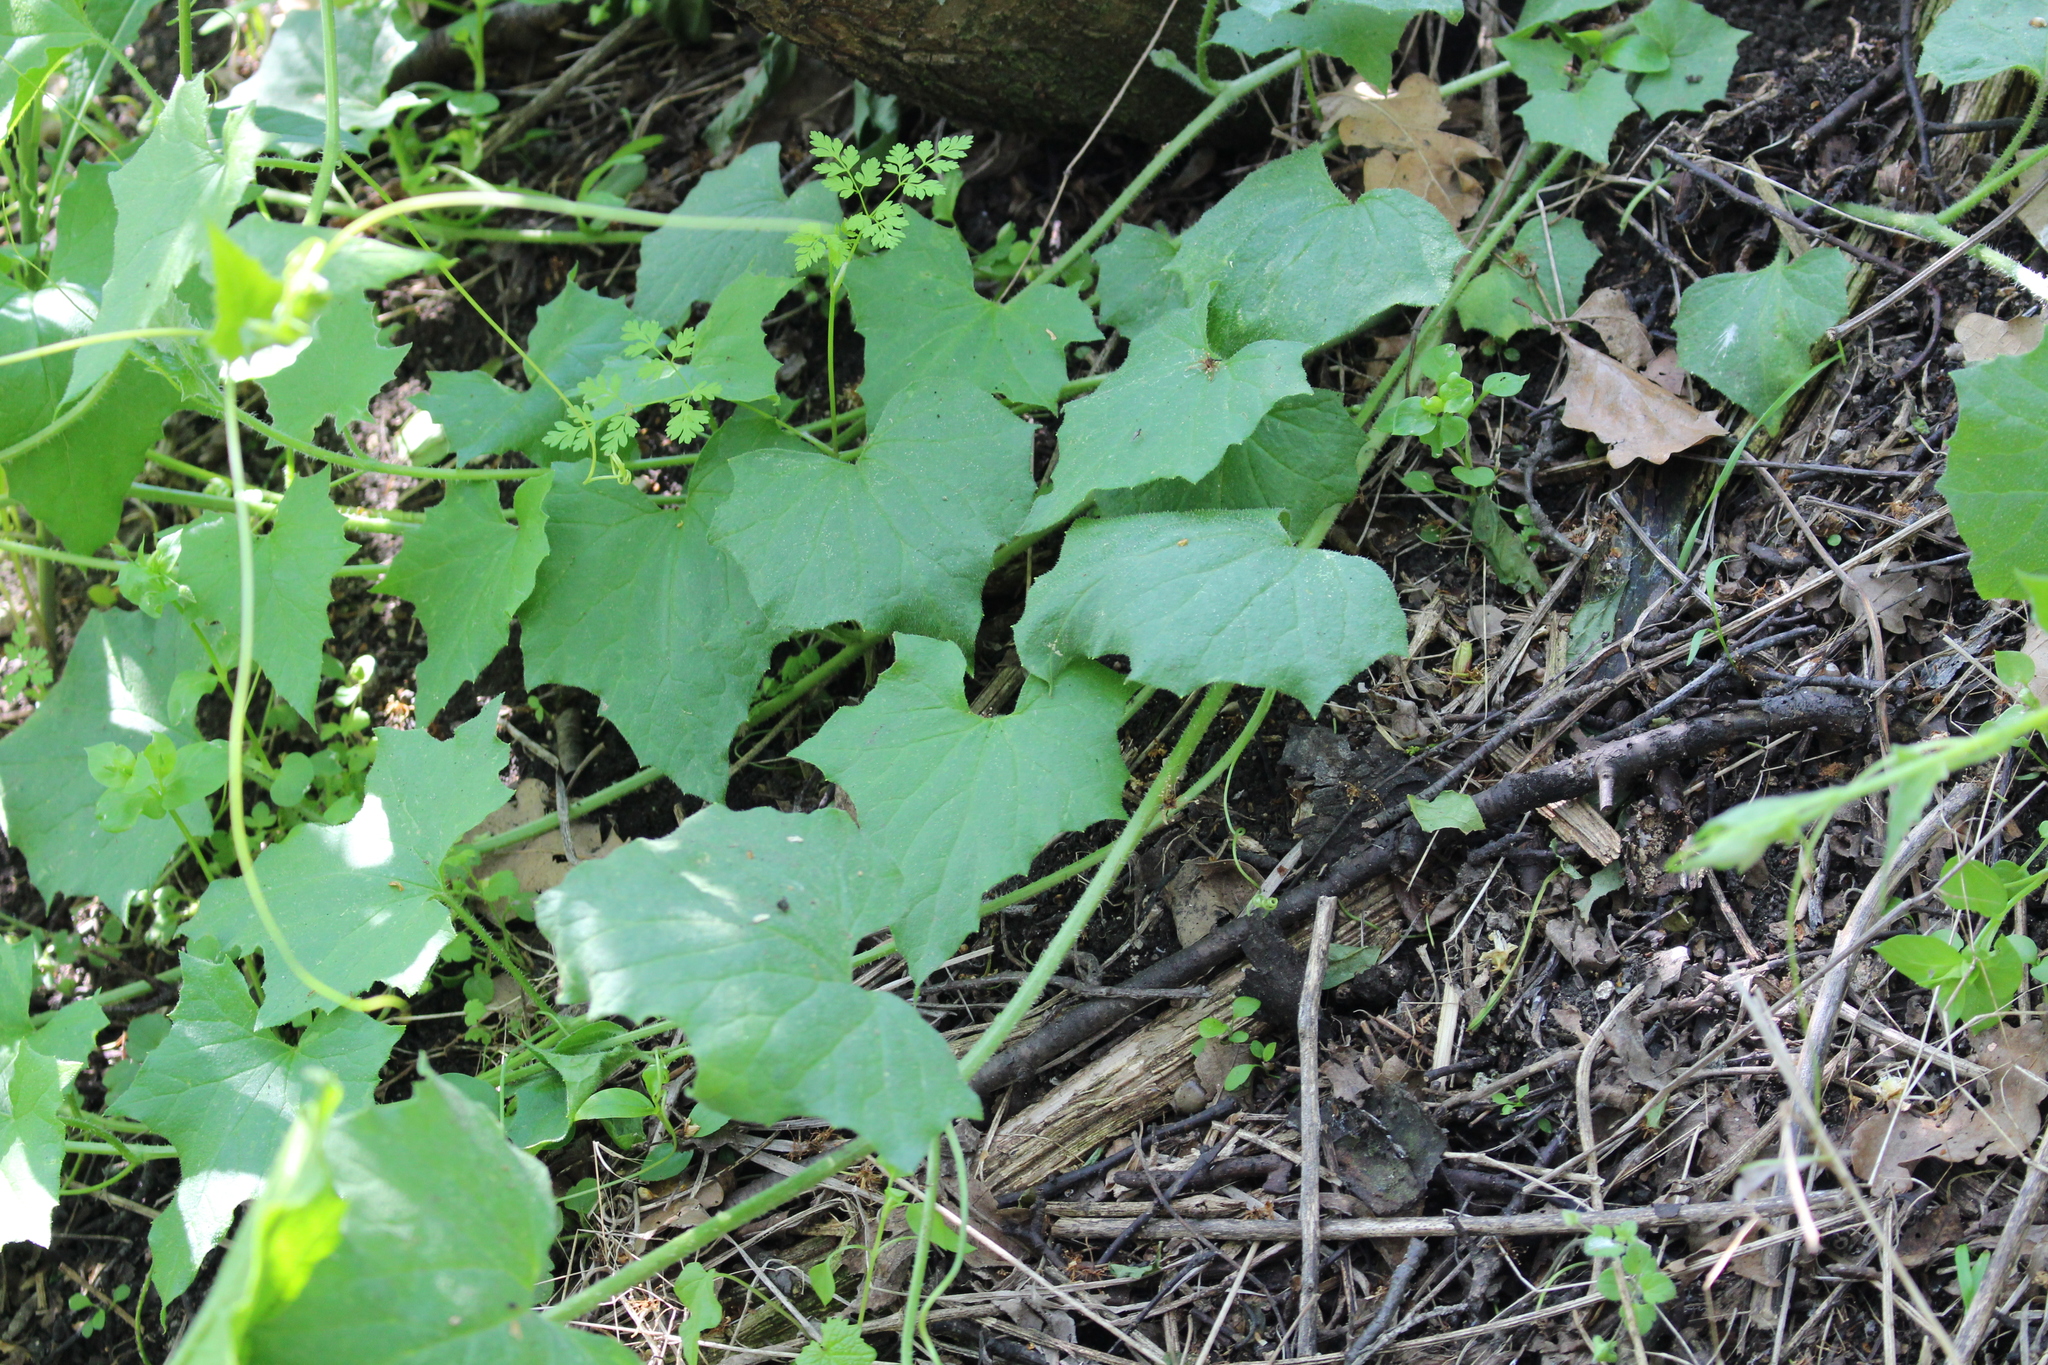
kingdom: Plantae
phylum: Tracheophyta
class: Magnoliopsida
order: Cucurbitales
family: Cucurbitaceae
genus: Bryonia
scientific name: Bryonia dioica
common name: White bryony
